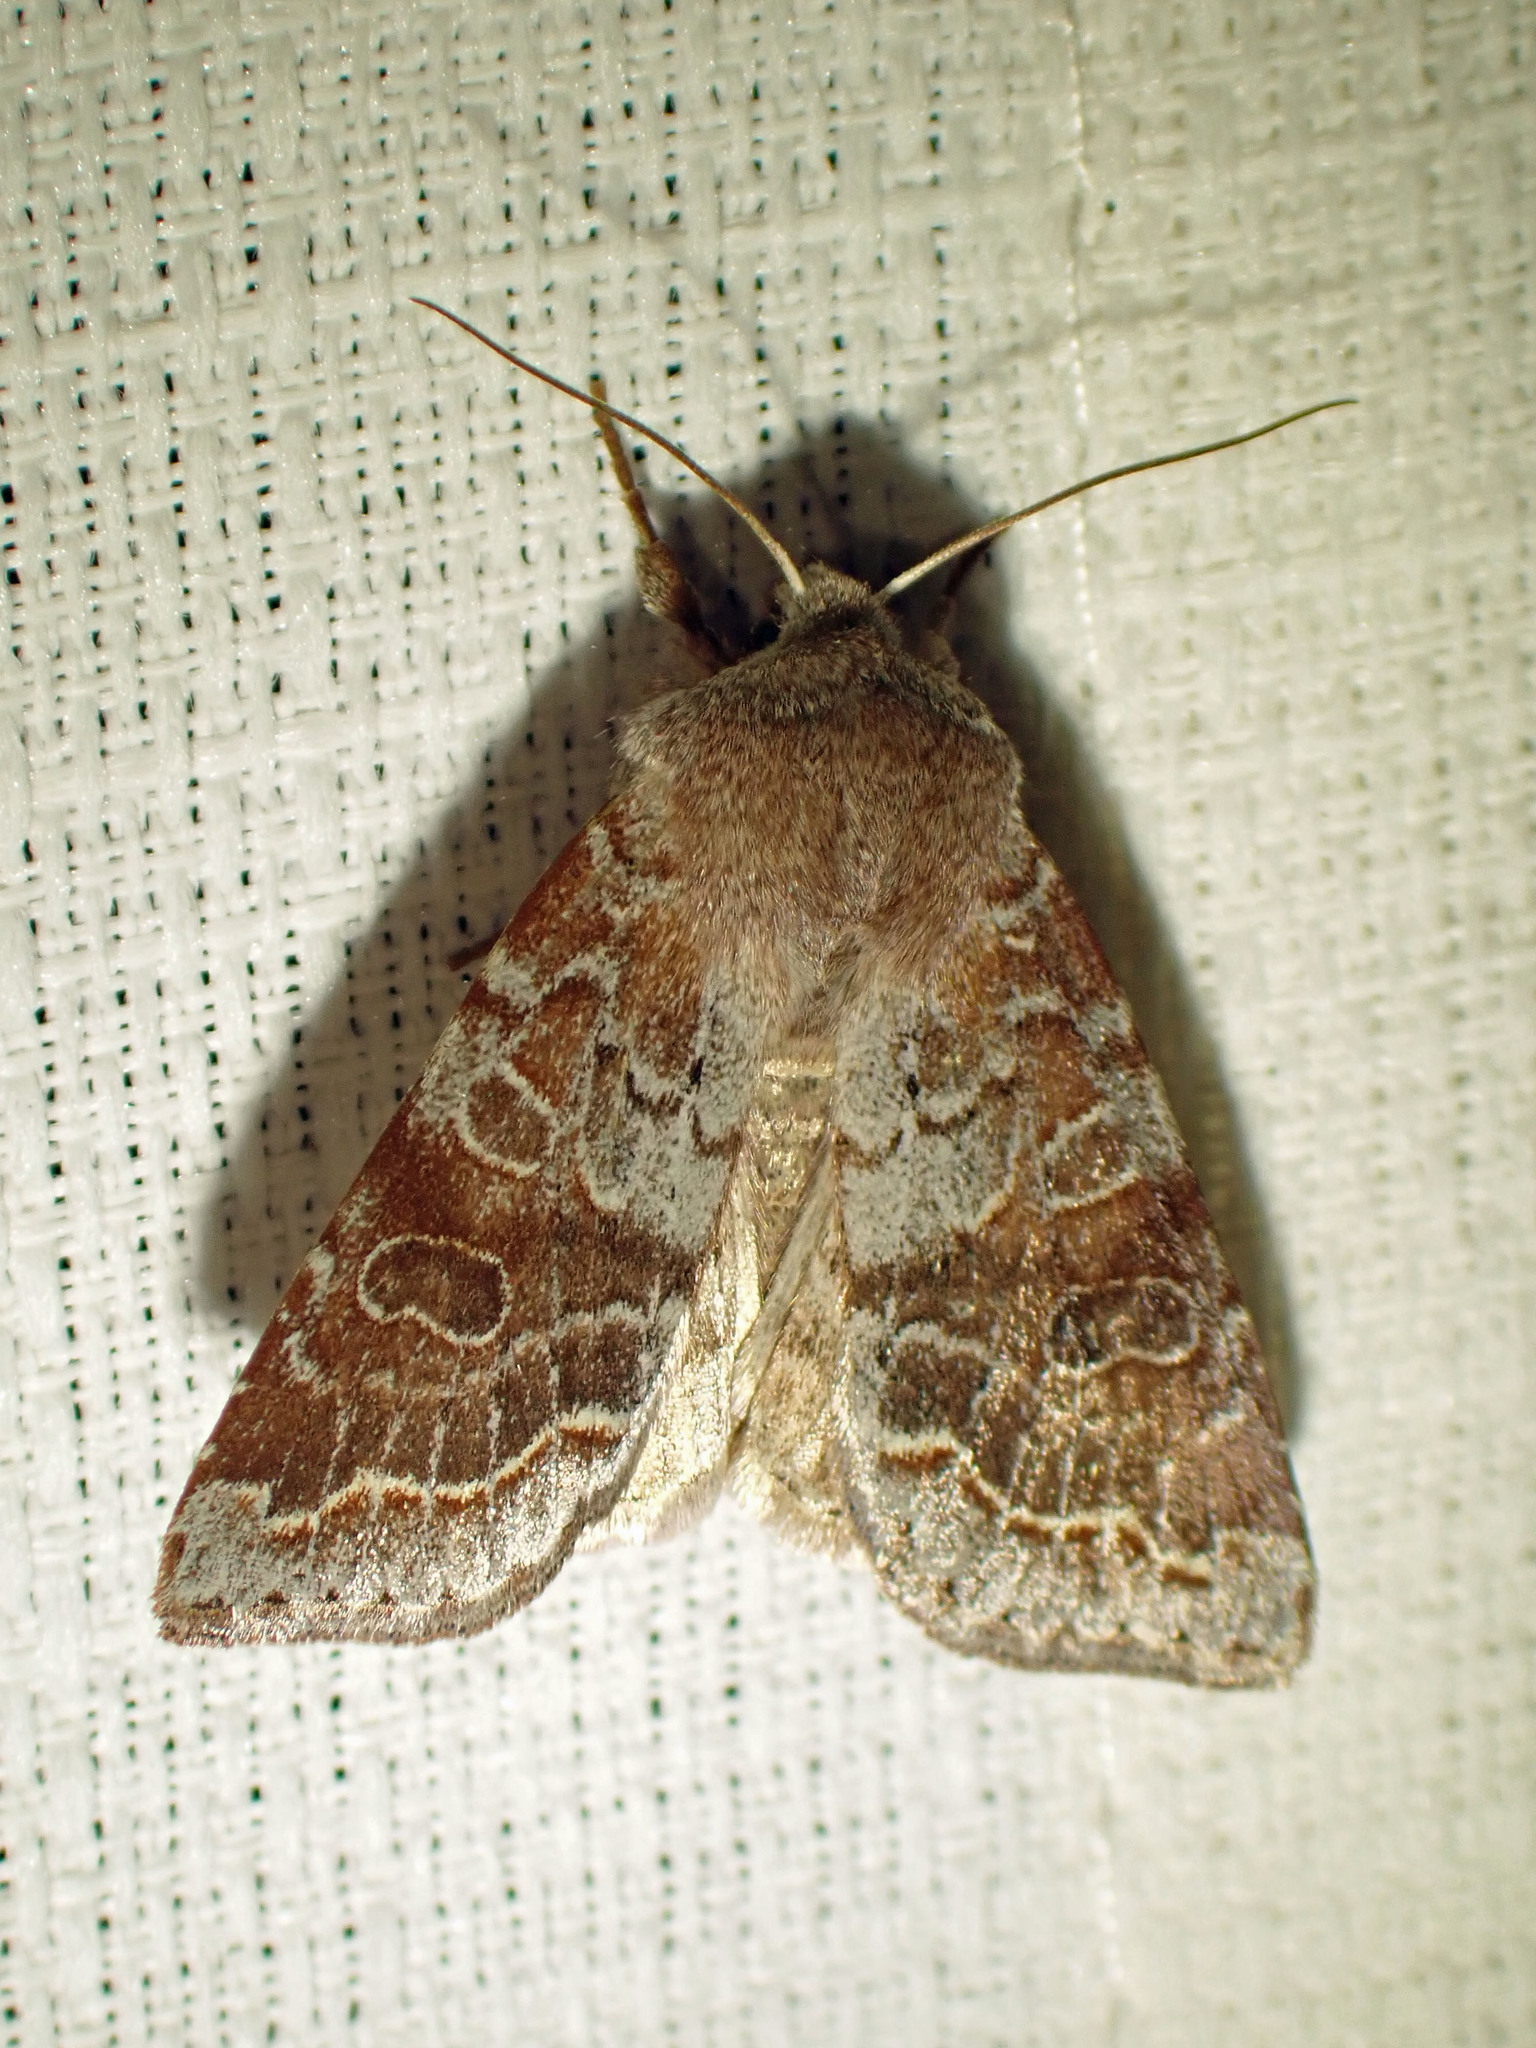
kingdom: Animalia
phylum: Arthropoda
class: Insecta
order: Lepidoptera
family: Noctuidae
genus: Orthosia
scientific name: Orthosia revicta
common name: Rusty whitesided caterpillar
